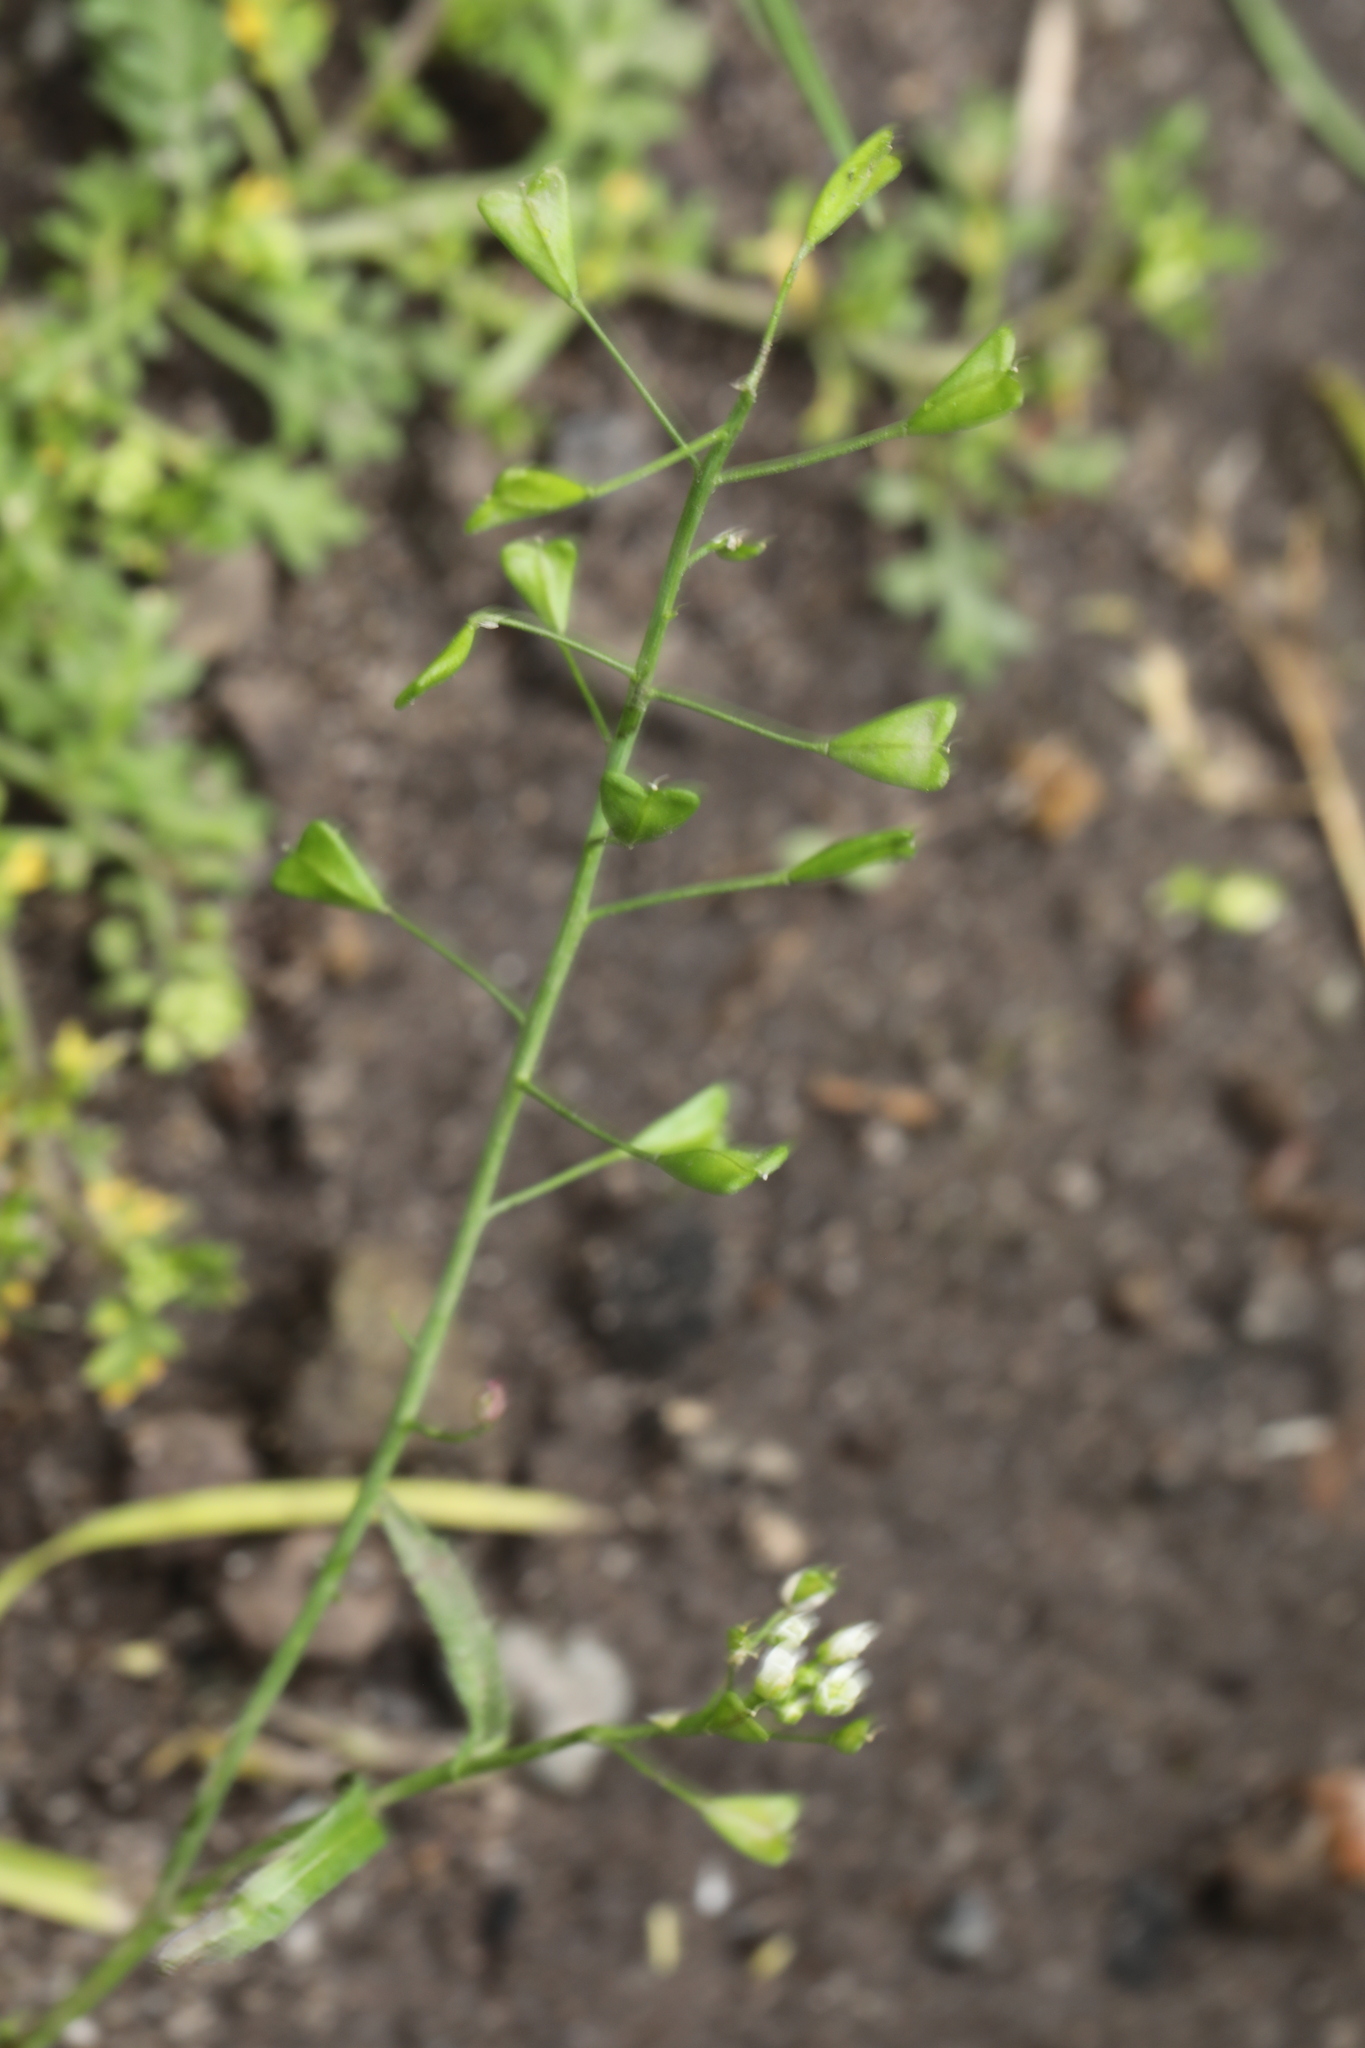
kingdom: Plantae
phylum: Tracheophyta
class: Magnoliopsida
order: Brassicales
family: Brassicaceae
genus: Capsella
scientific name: Capsella bursa-pastoris
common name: Shepherd's purse
